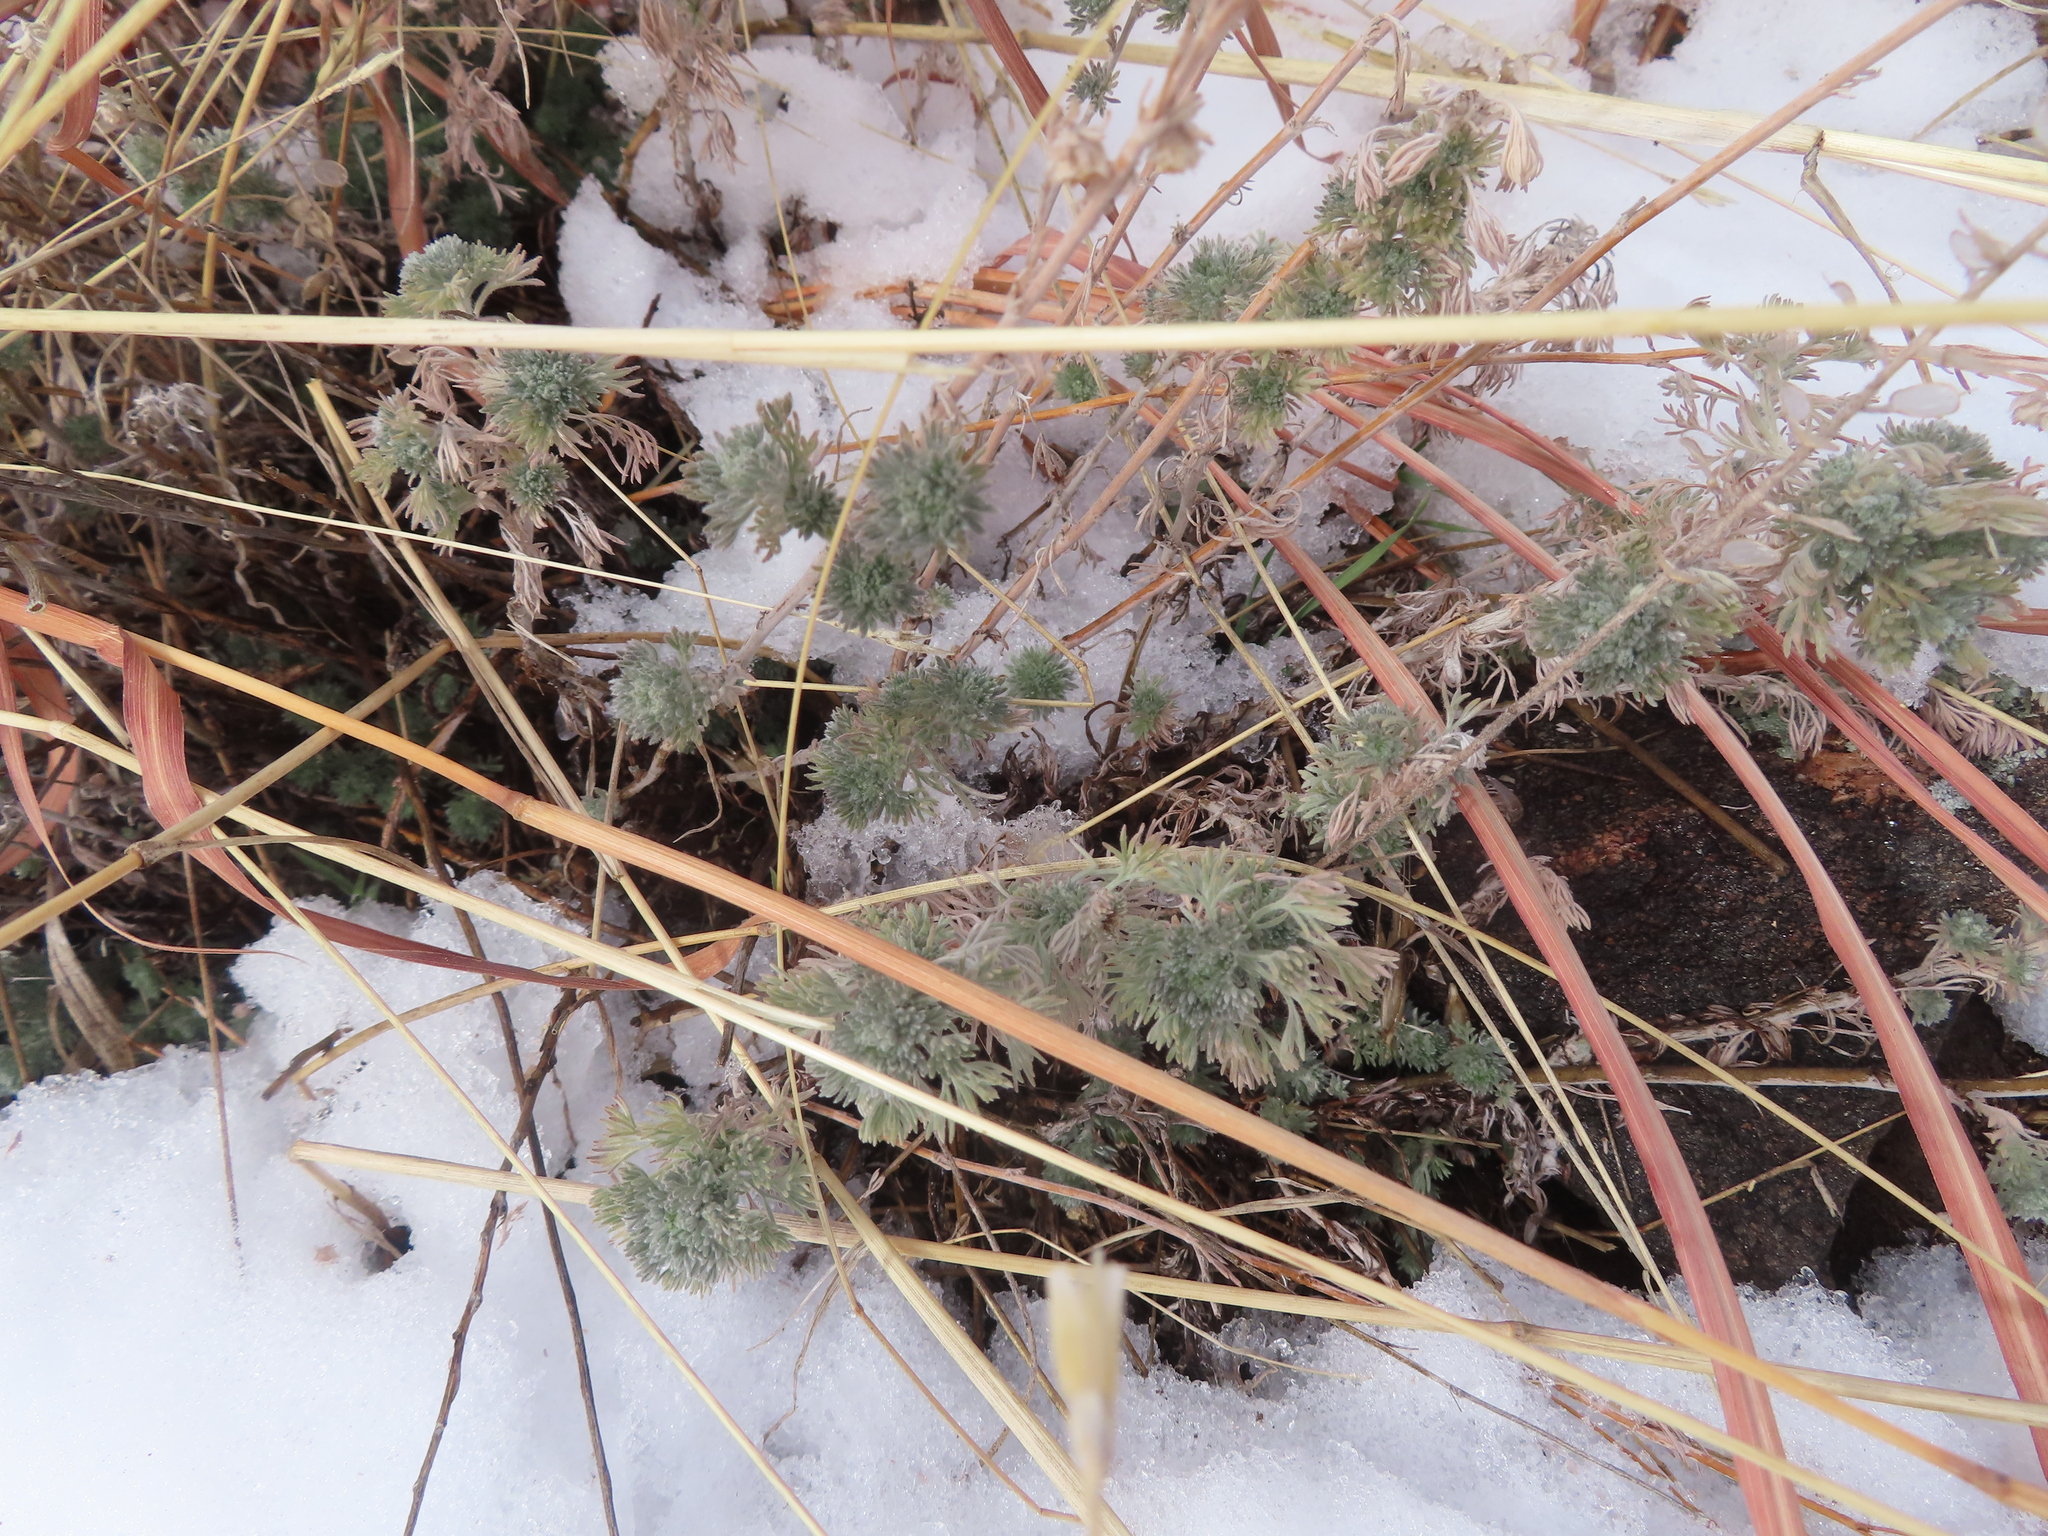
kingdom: Plantae
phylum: Tracheophyta
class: Magnoliopsida
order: Asterales
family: Asteraceae
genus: Artemisia
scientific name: Artemisia frigida
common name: Prairie sagewort
